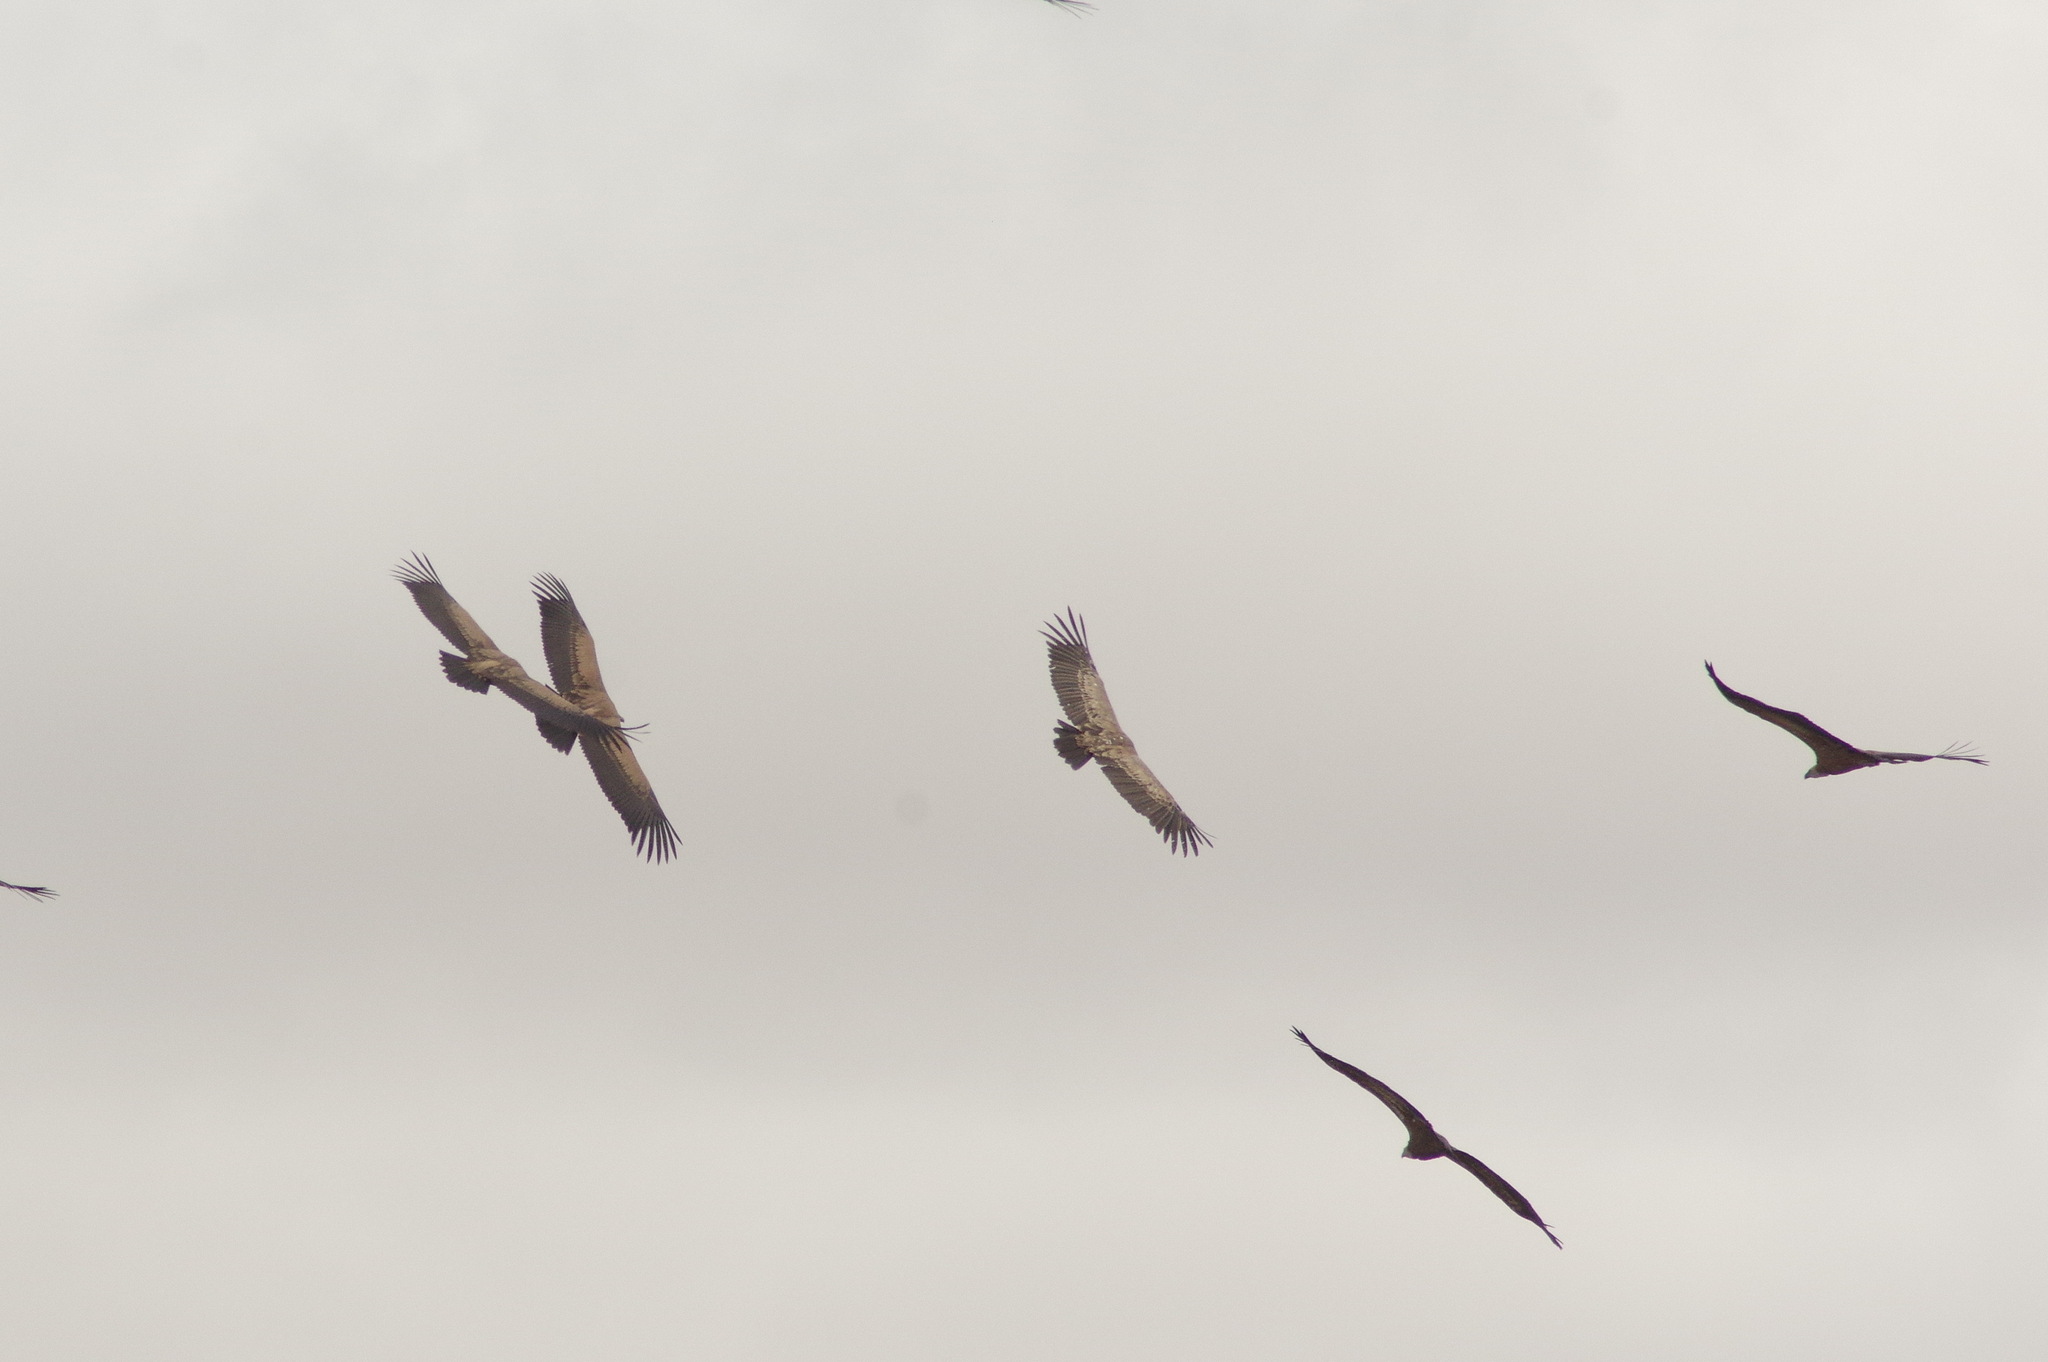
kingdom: Animalia
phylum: Chordata
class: Aves
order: Accipitriformes
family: Accipitridae
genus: Gyps
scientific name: Gyps fulvus
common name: Griffon vulture
